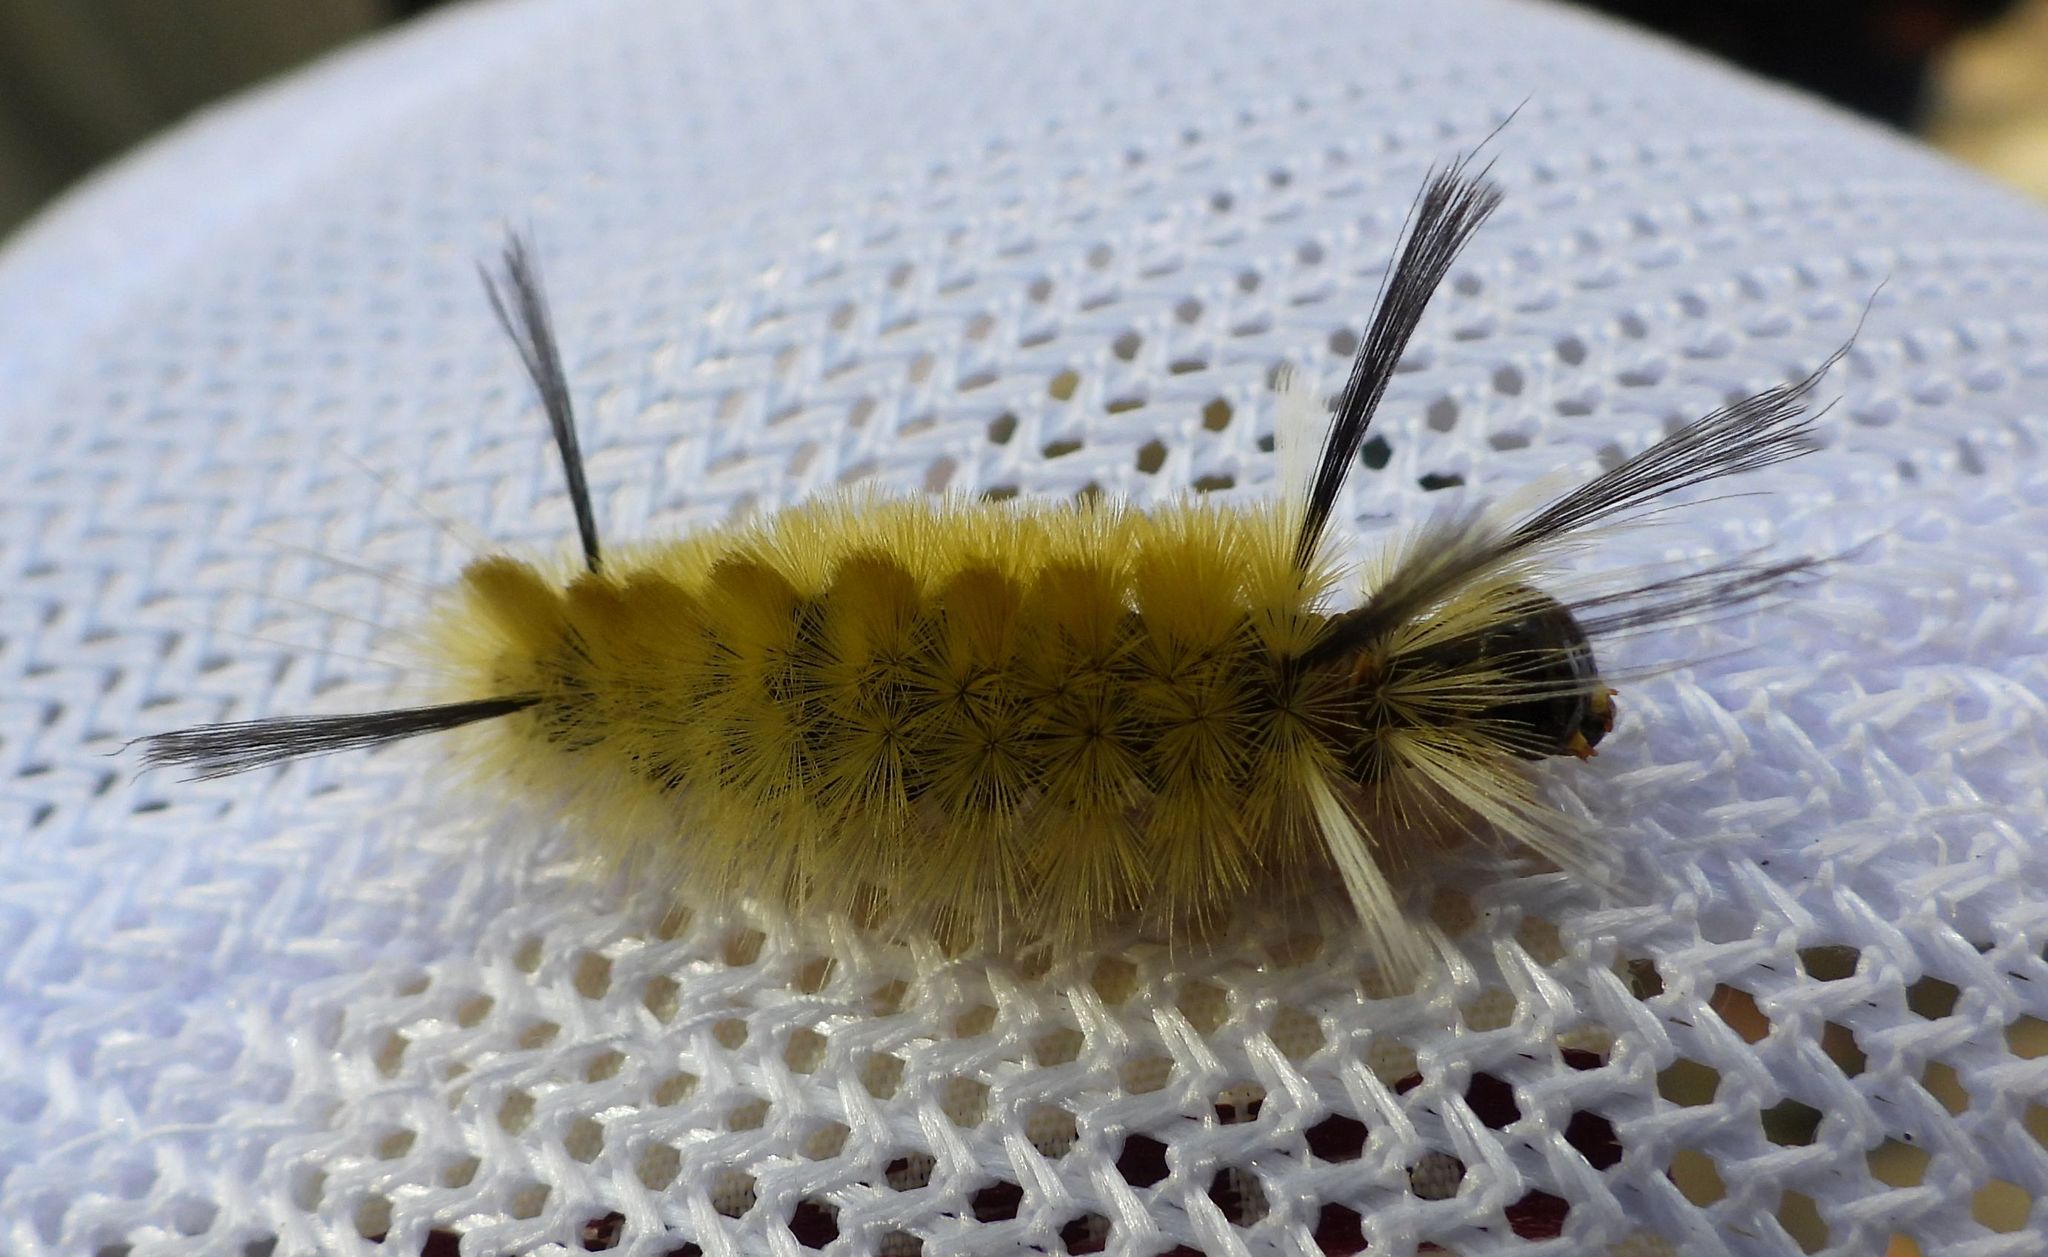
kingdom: Animalia
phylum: Arthropoda
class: Insecta
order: Lepidoptera
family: Erebidae
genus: Halysidota
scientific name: Halysidota tessellaris
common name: Banded tussock moth
